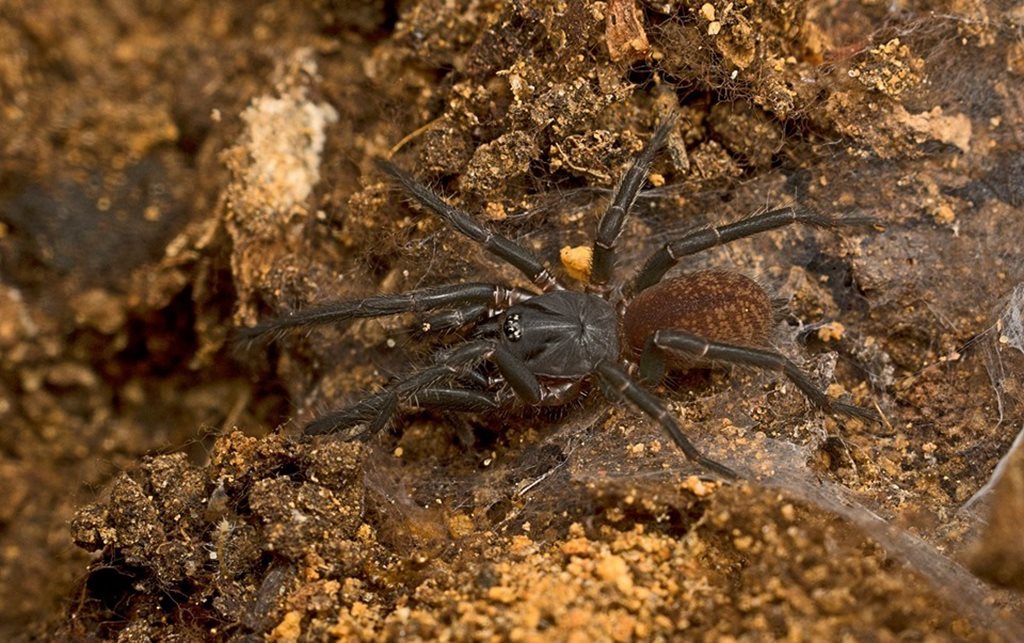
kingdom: Animalia
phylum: Arthropoda
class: Arachnida
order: Araneae
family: Anamidae
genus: Proshermacha
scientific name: Proshermacha
